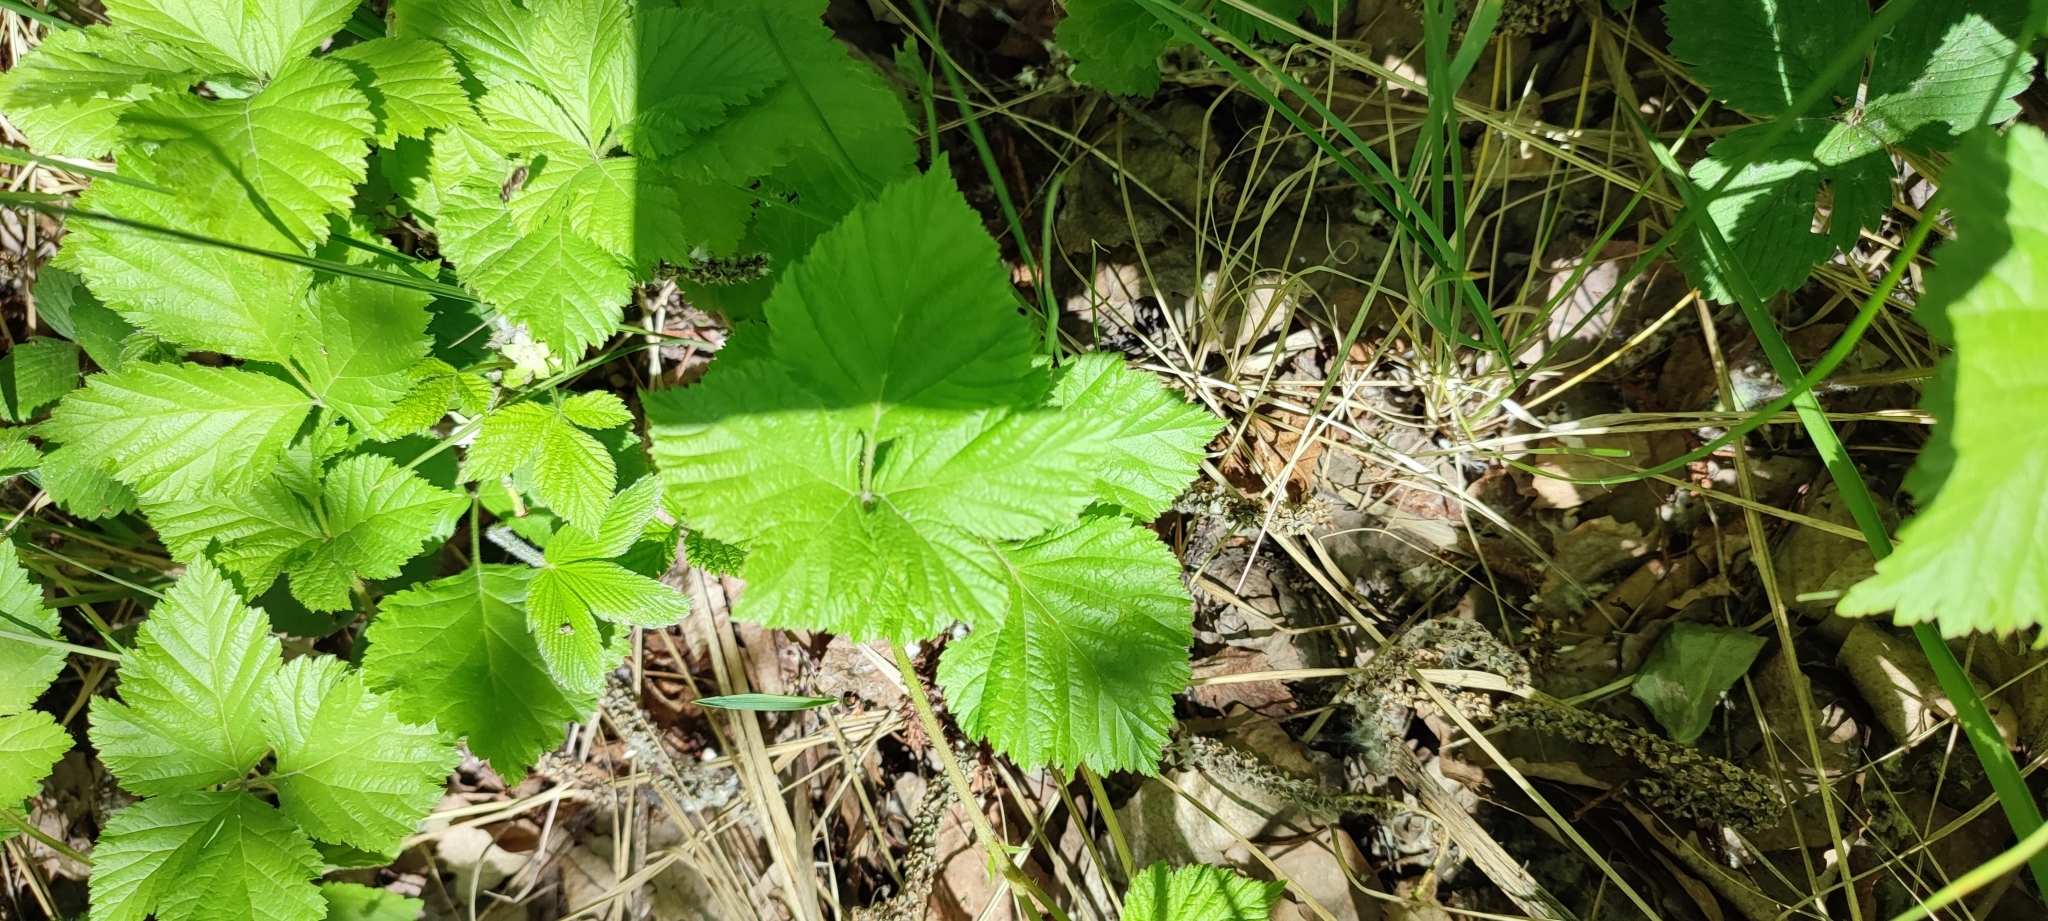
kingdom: Plantae
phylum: Tracheophyta
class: Magnoliopsida
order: Rosales
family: Rosaceae
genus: Rubus
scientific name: Rubus saxatilis
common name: Stone bramble
